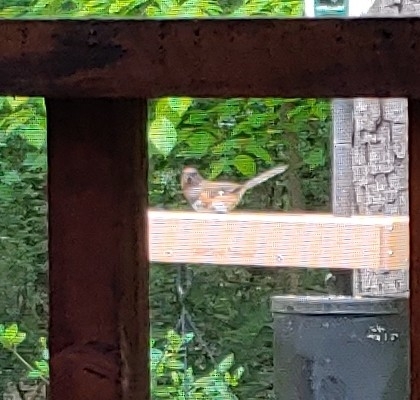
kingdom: Animalia
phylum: Chordata
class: Aves
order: Passeriformes
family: Passerellidae
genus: Pipilo
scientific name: Pipilo erythrophthalmus
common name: Eastern towhee
